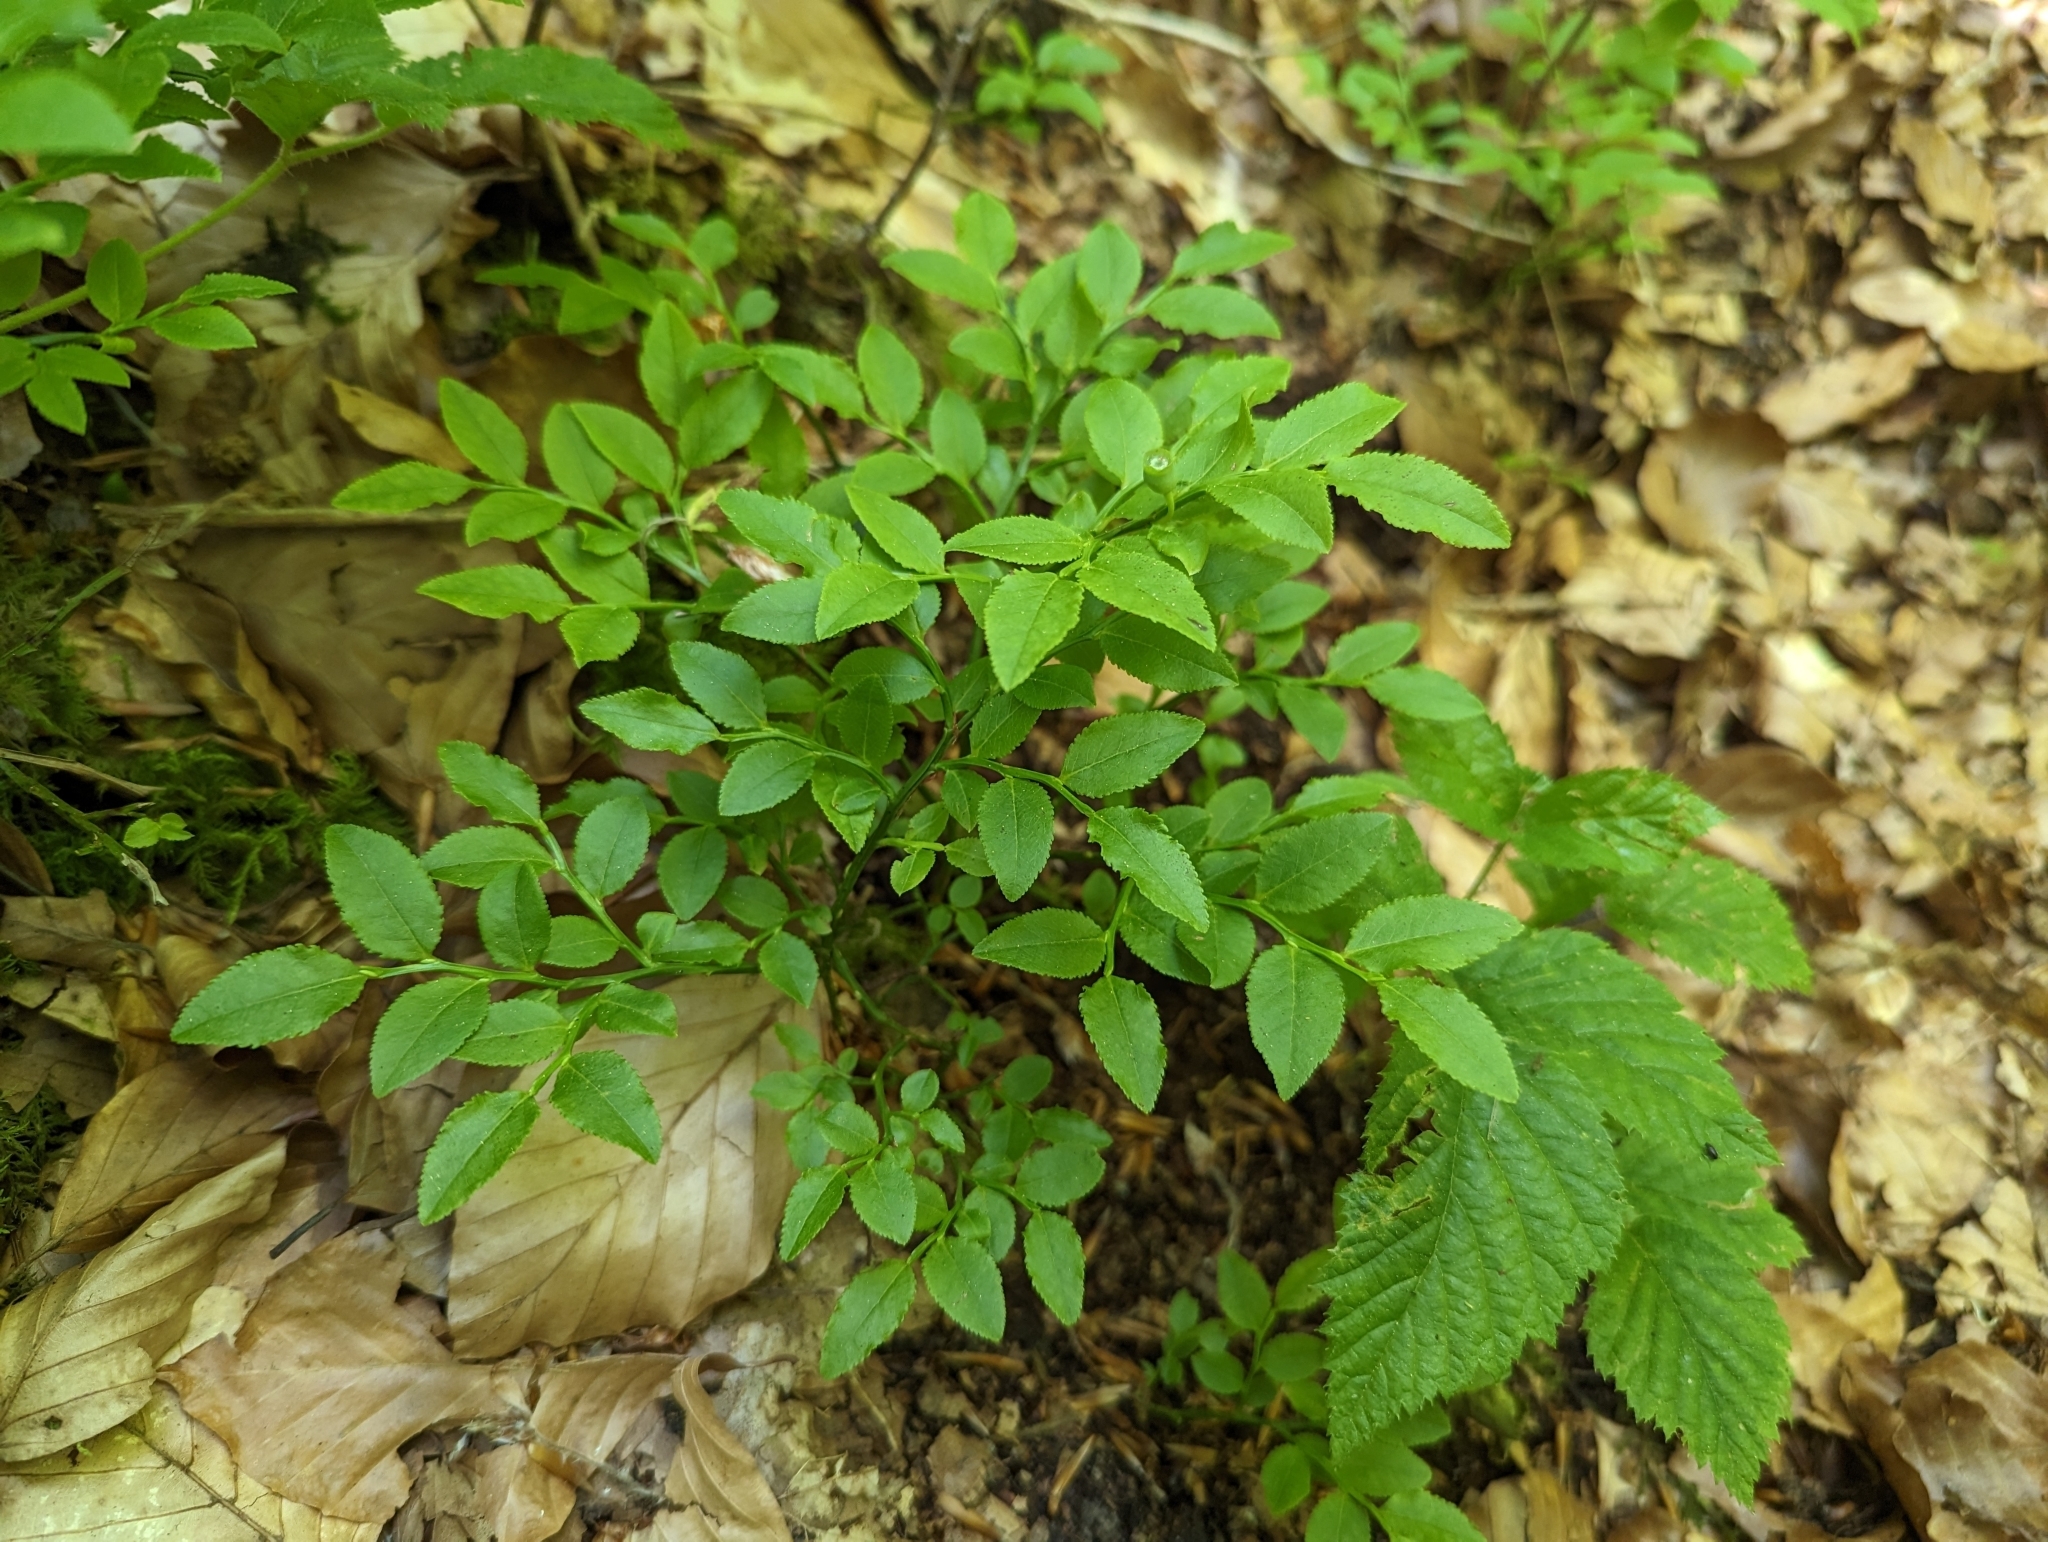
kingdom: Plantae
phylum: Tracheophyta
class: Magnoliopsida
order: Ericales
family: Ericaceae
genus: Vaccinium
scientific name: Vaccinium myrtillus
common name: Bilberry
